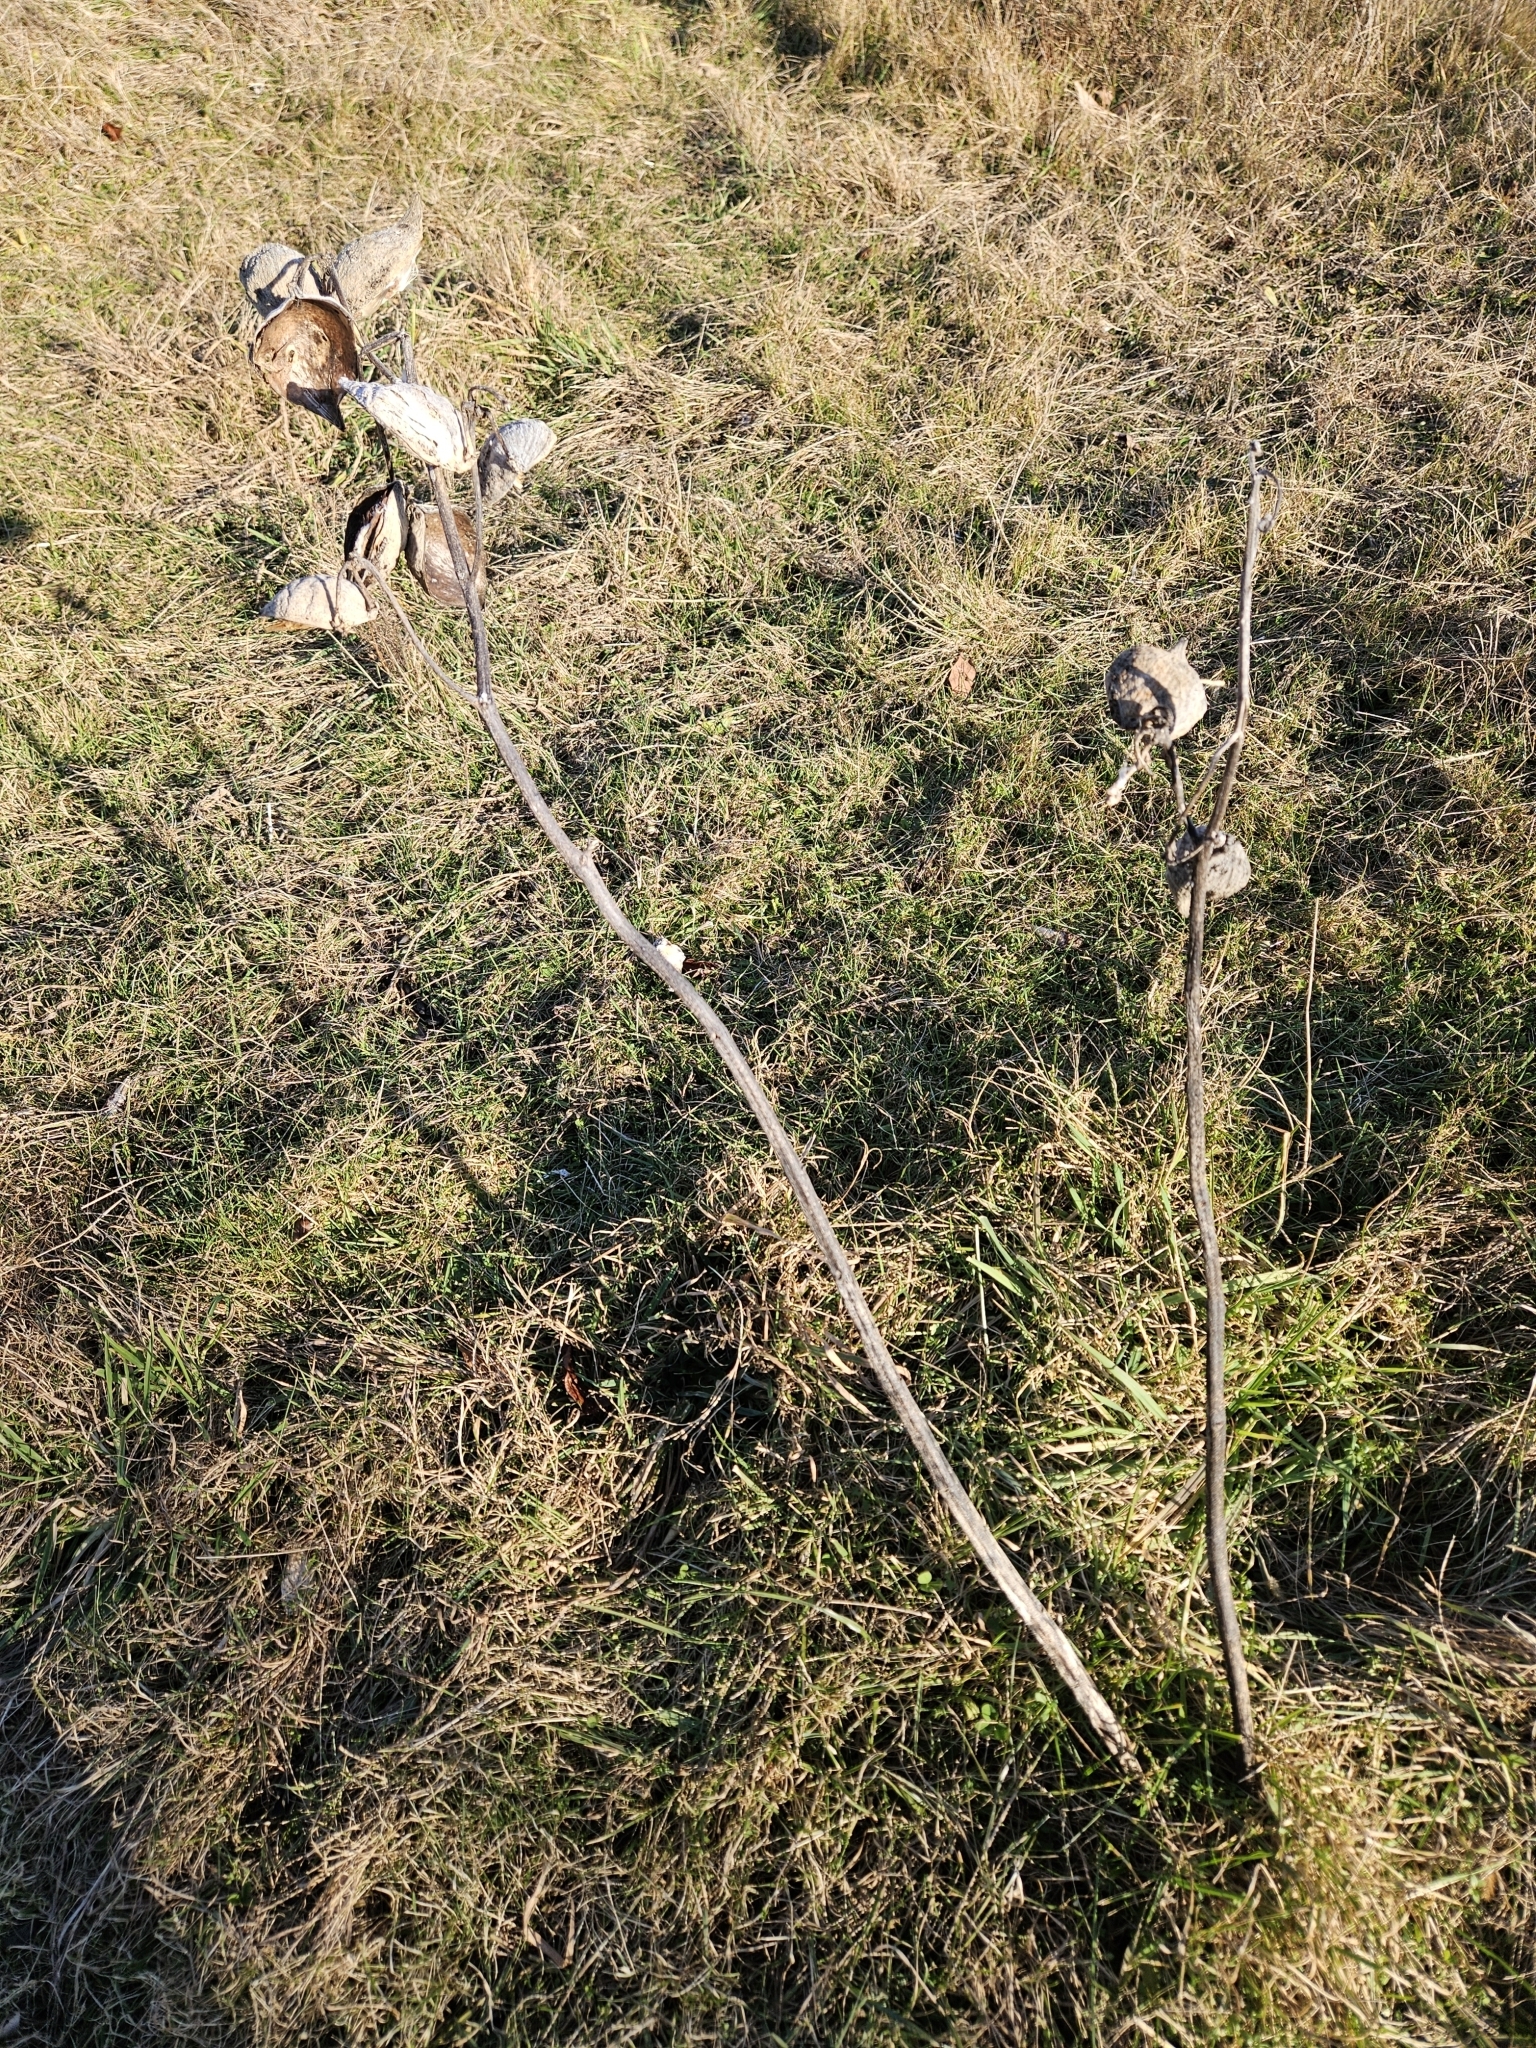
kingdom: Plantae
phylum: Tracheophyta
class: Magnoliopsida
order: Gentianales
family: Apocynaceae
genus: Asclepias
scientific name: Asclepias syriaca
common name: Common milkweed
